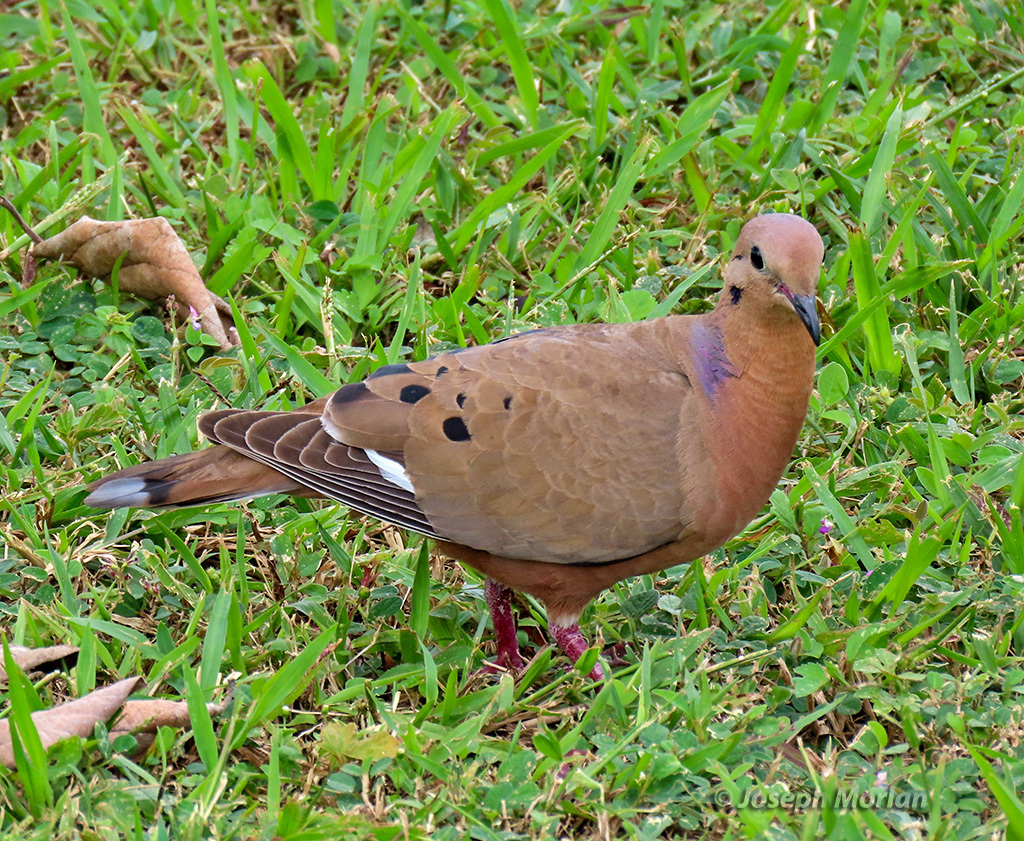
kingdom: Animalia
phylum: Chordata
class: Aves
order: Columbiformes
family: Columbidae
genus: Zenaida
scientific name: Zenaida aurita
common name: Zenaida dove
